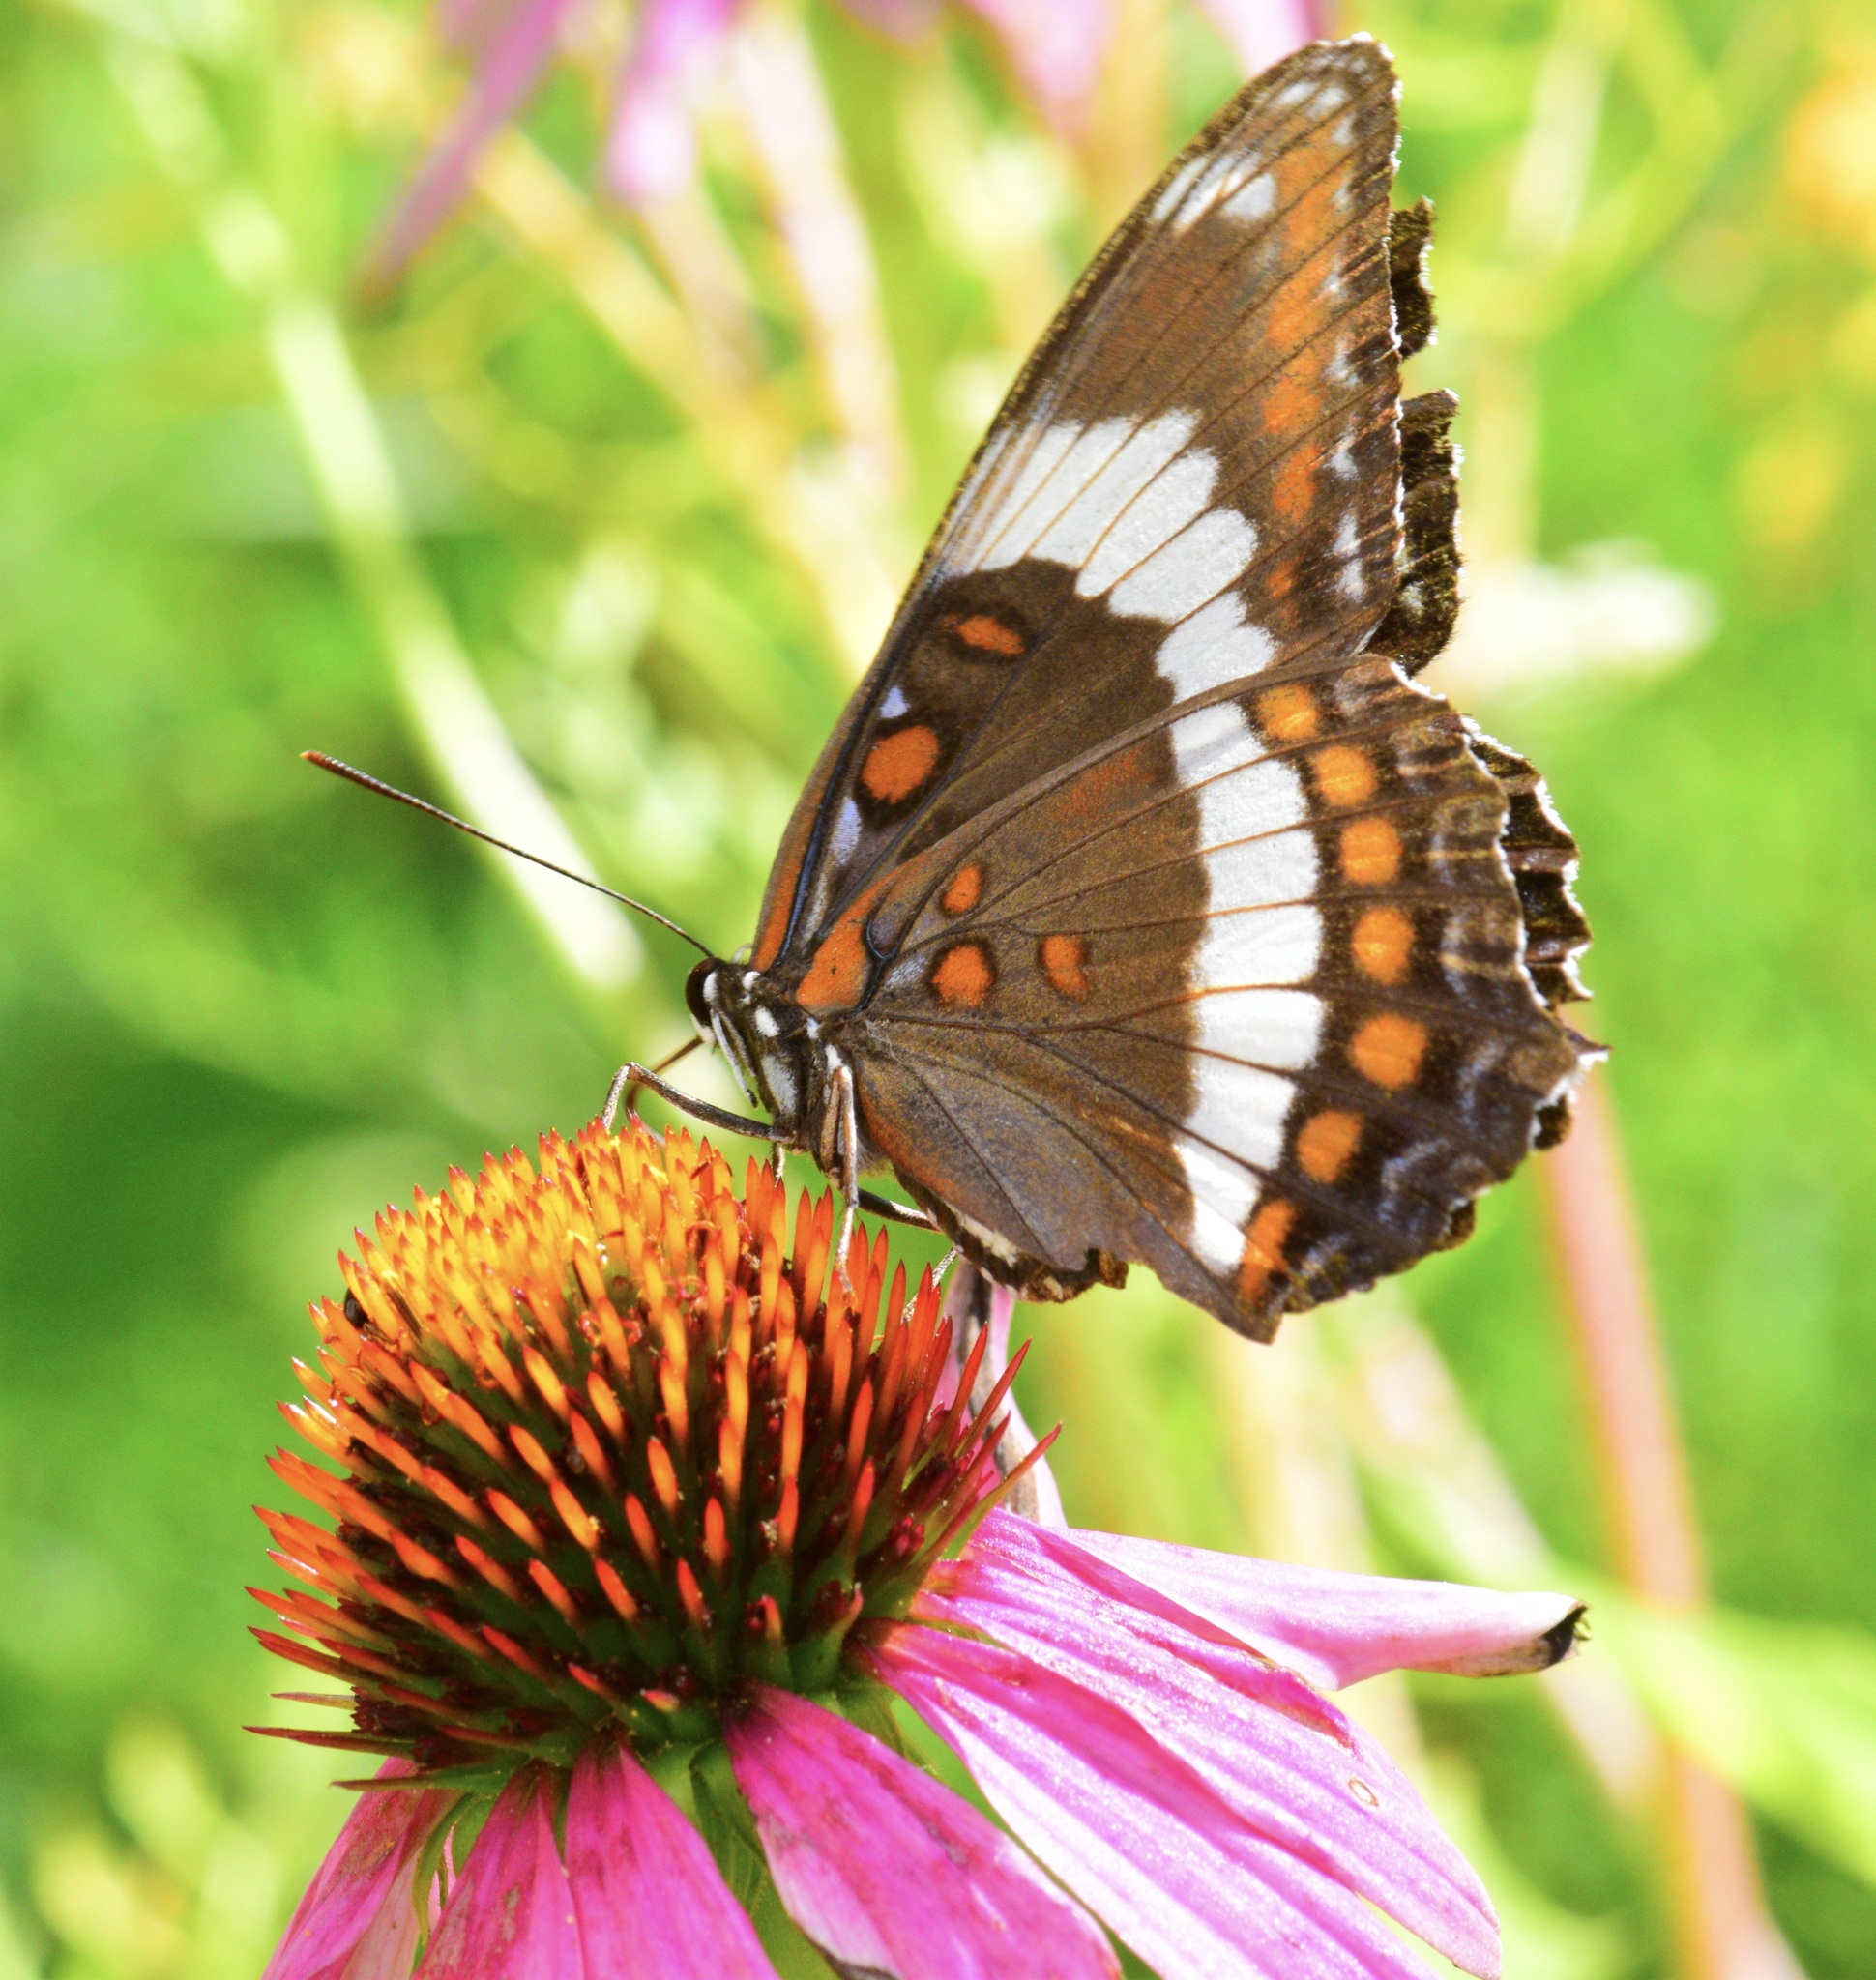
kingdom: Animalia
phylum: Arthropoda
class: Insecta
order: Lepidoptera
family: Nymphalidae
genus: Limenitis
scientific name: Limenitis arthemis
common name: Red-spotted admiral
